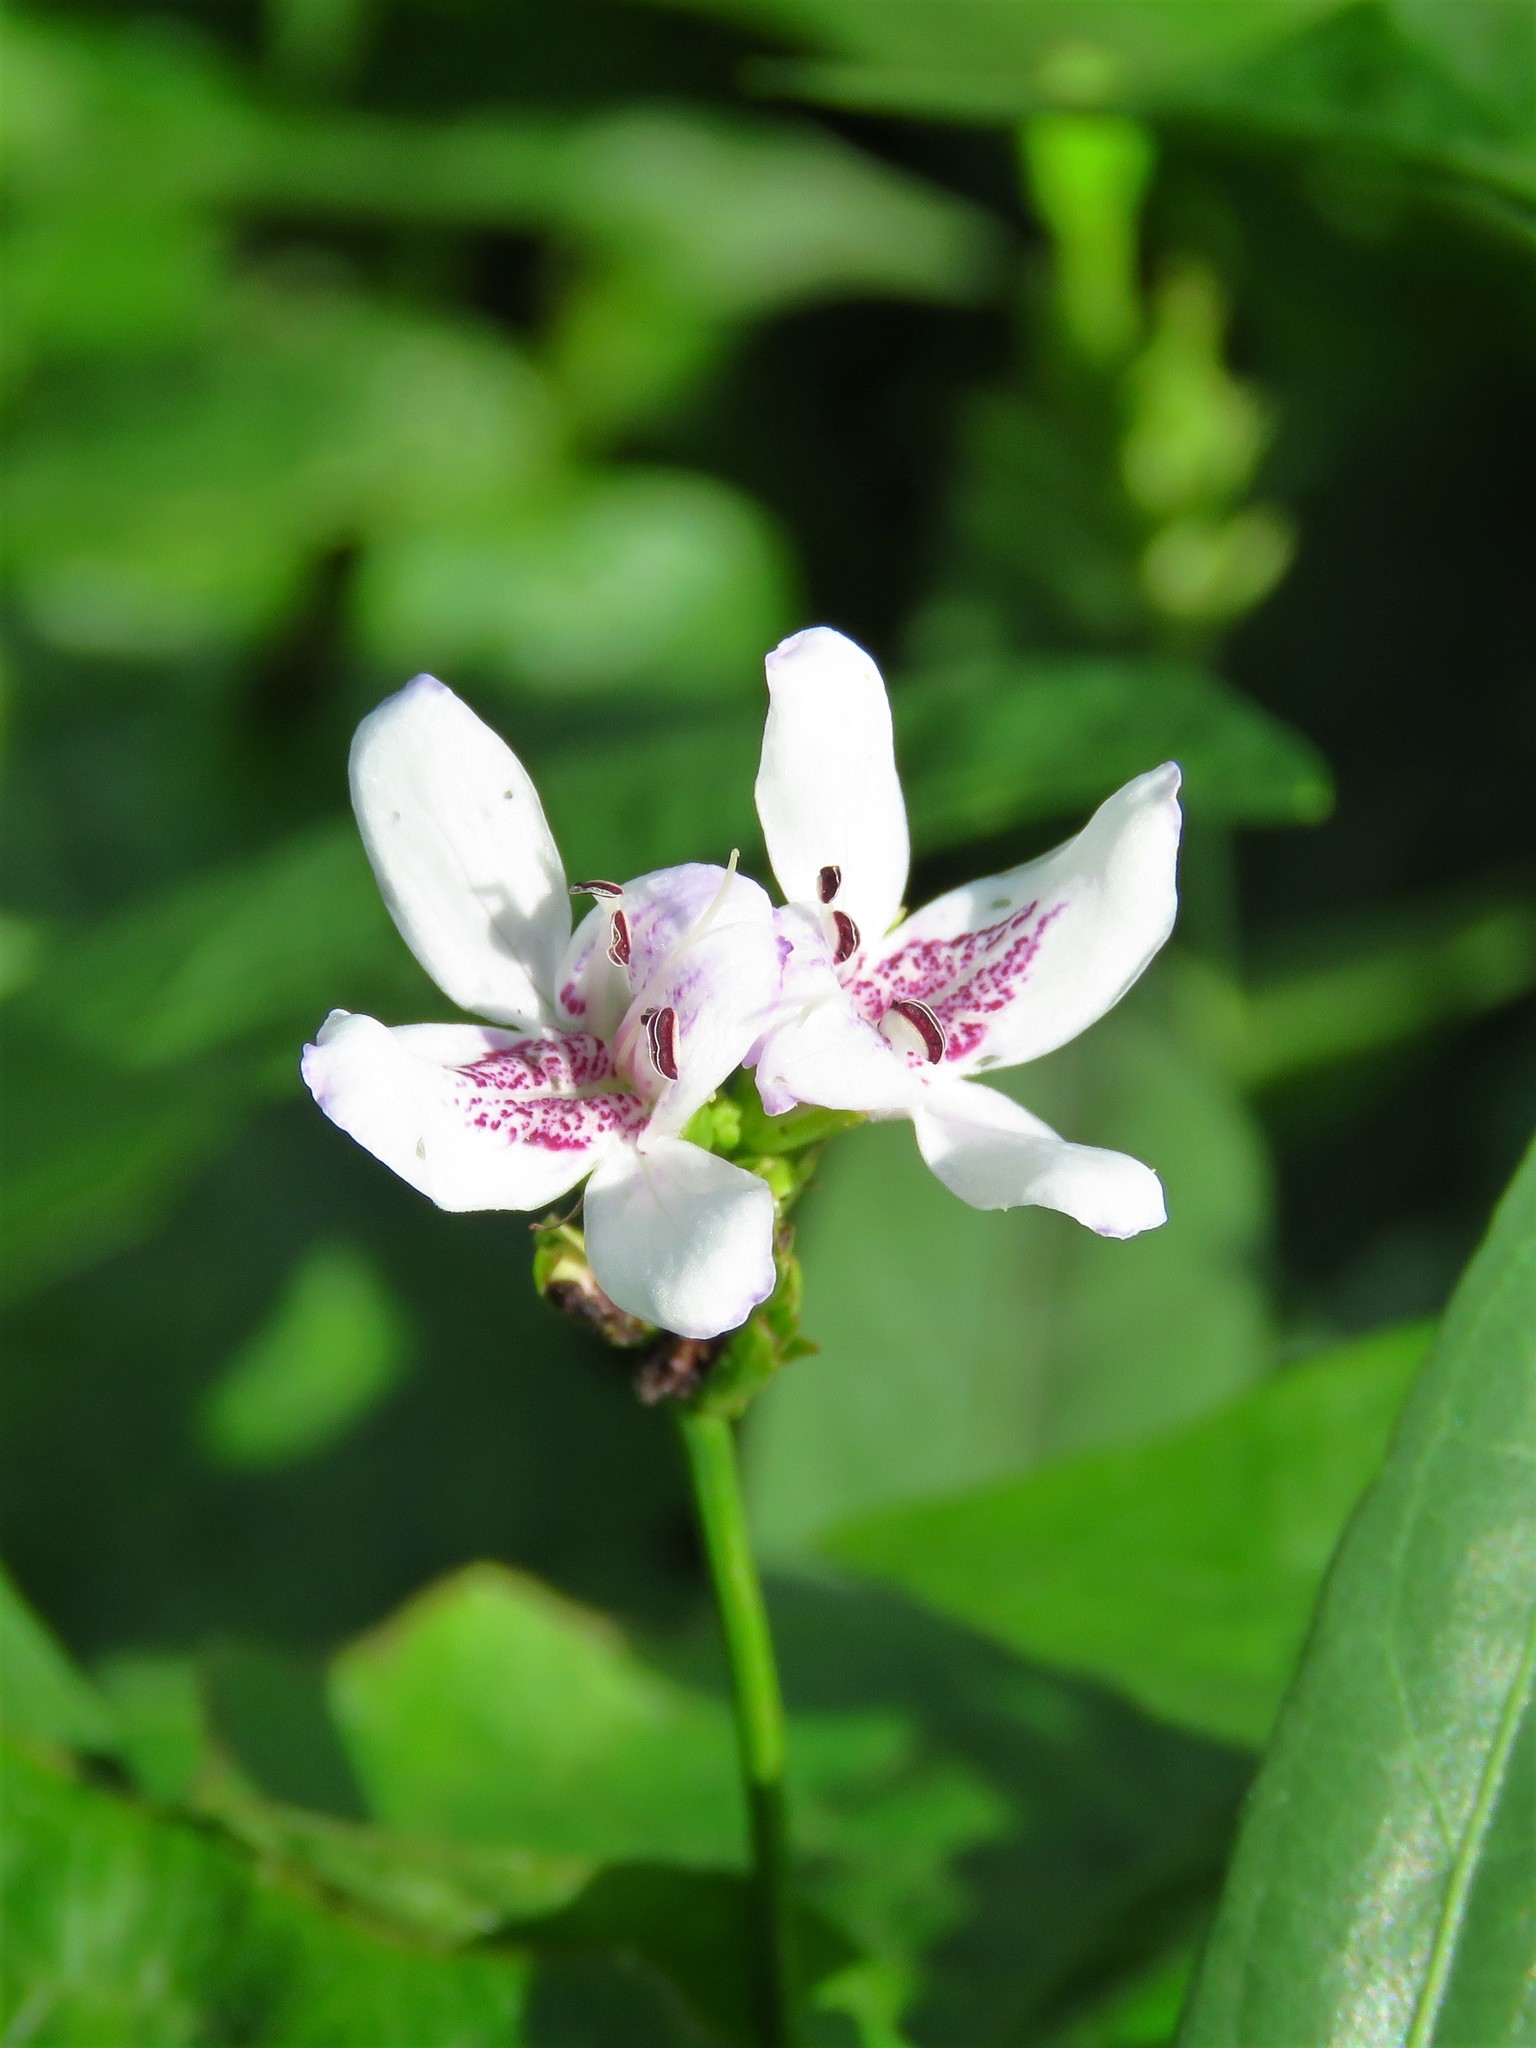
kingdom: Plantae
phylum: Tracheophyta
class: Magnoliopsida
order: Lamiales
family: Acanthaceae
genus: Dianthera
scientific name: Dianthera americana
